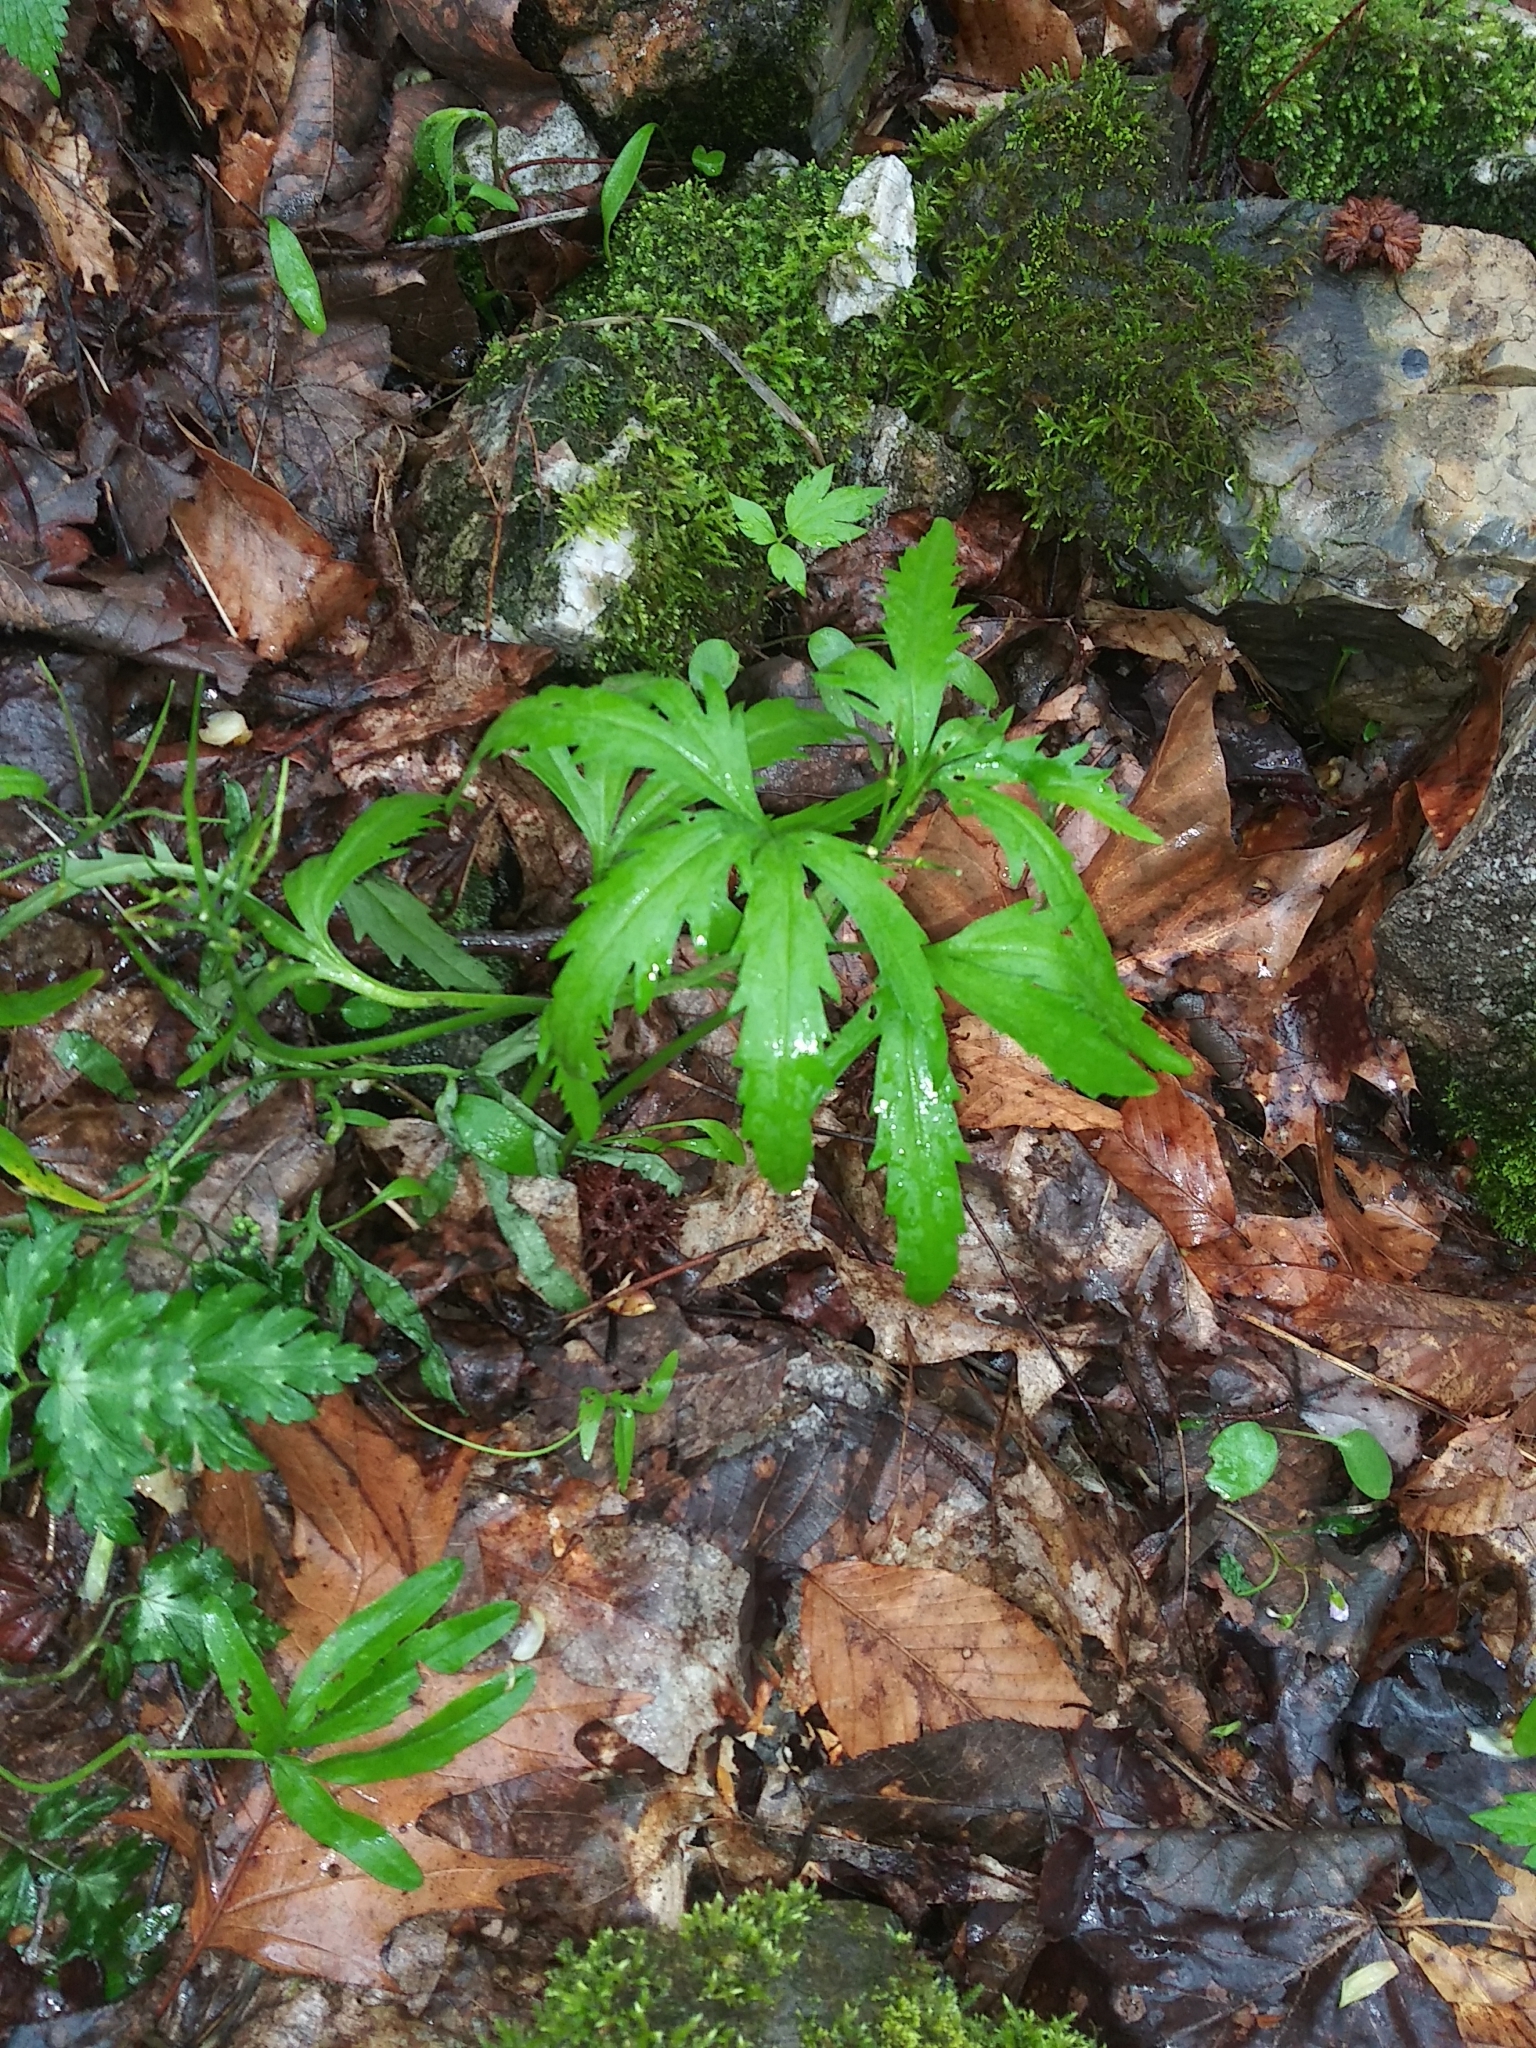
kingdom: Plantae
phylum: Tracheophyta
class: Magnoliopsida
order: Brassicales
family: Brassicaceae
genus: Cardamine
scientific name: Cardamine concatenata
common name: Cut-leaf toothcup
